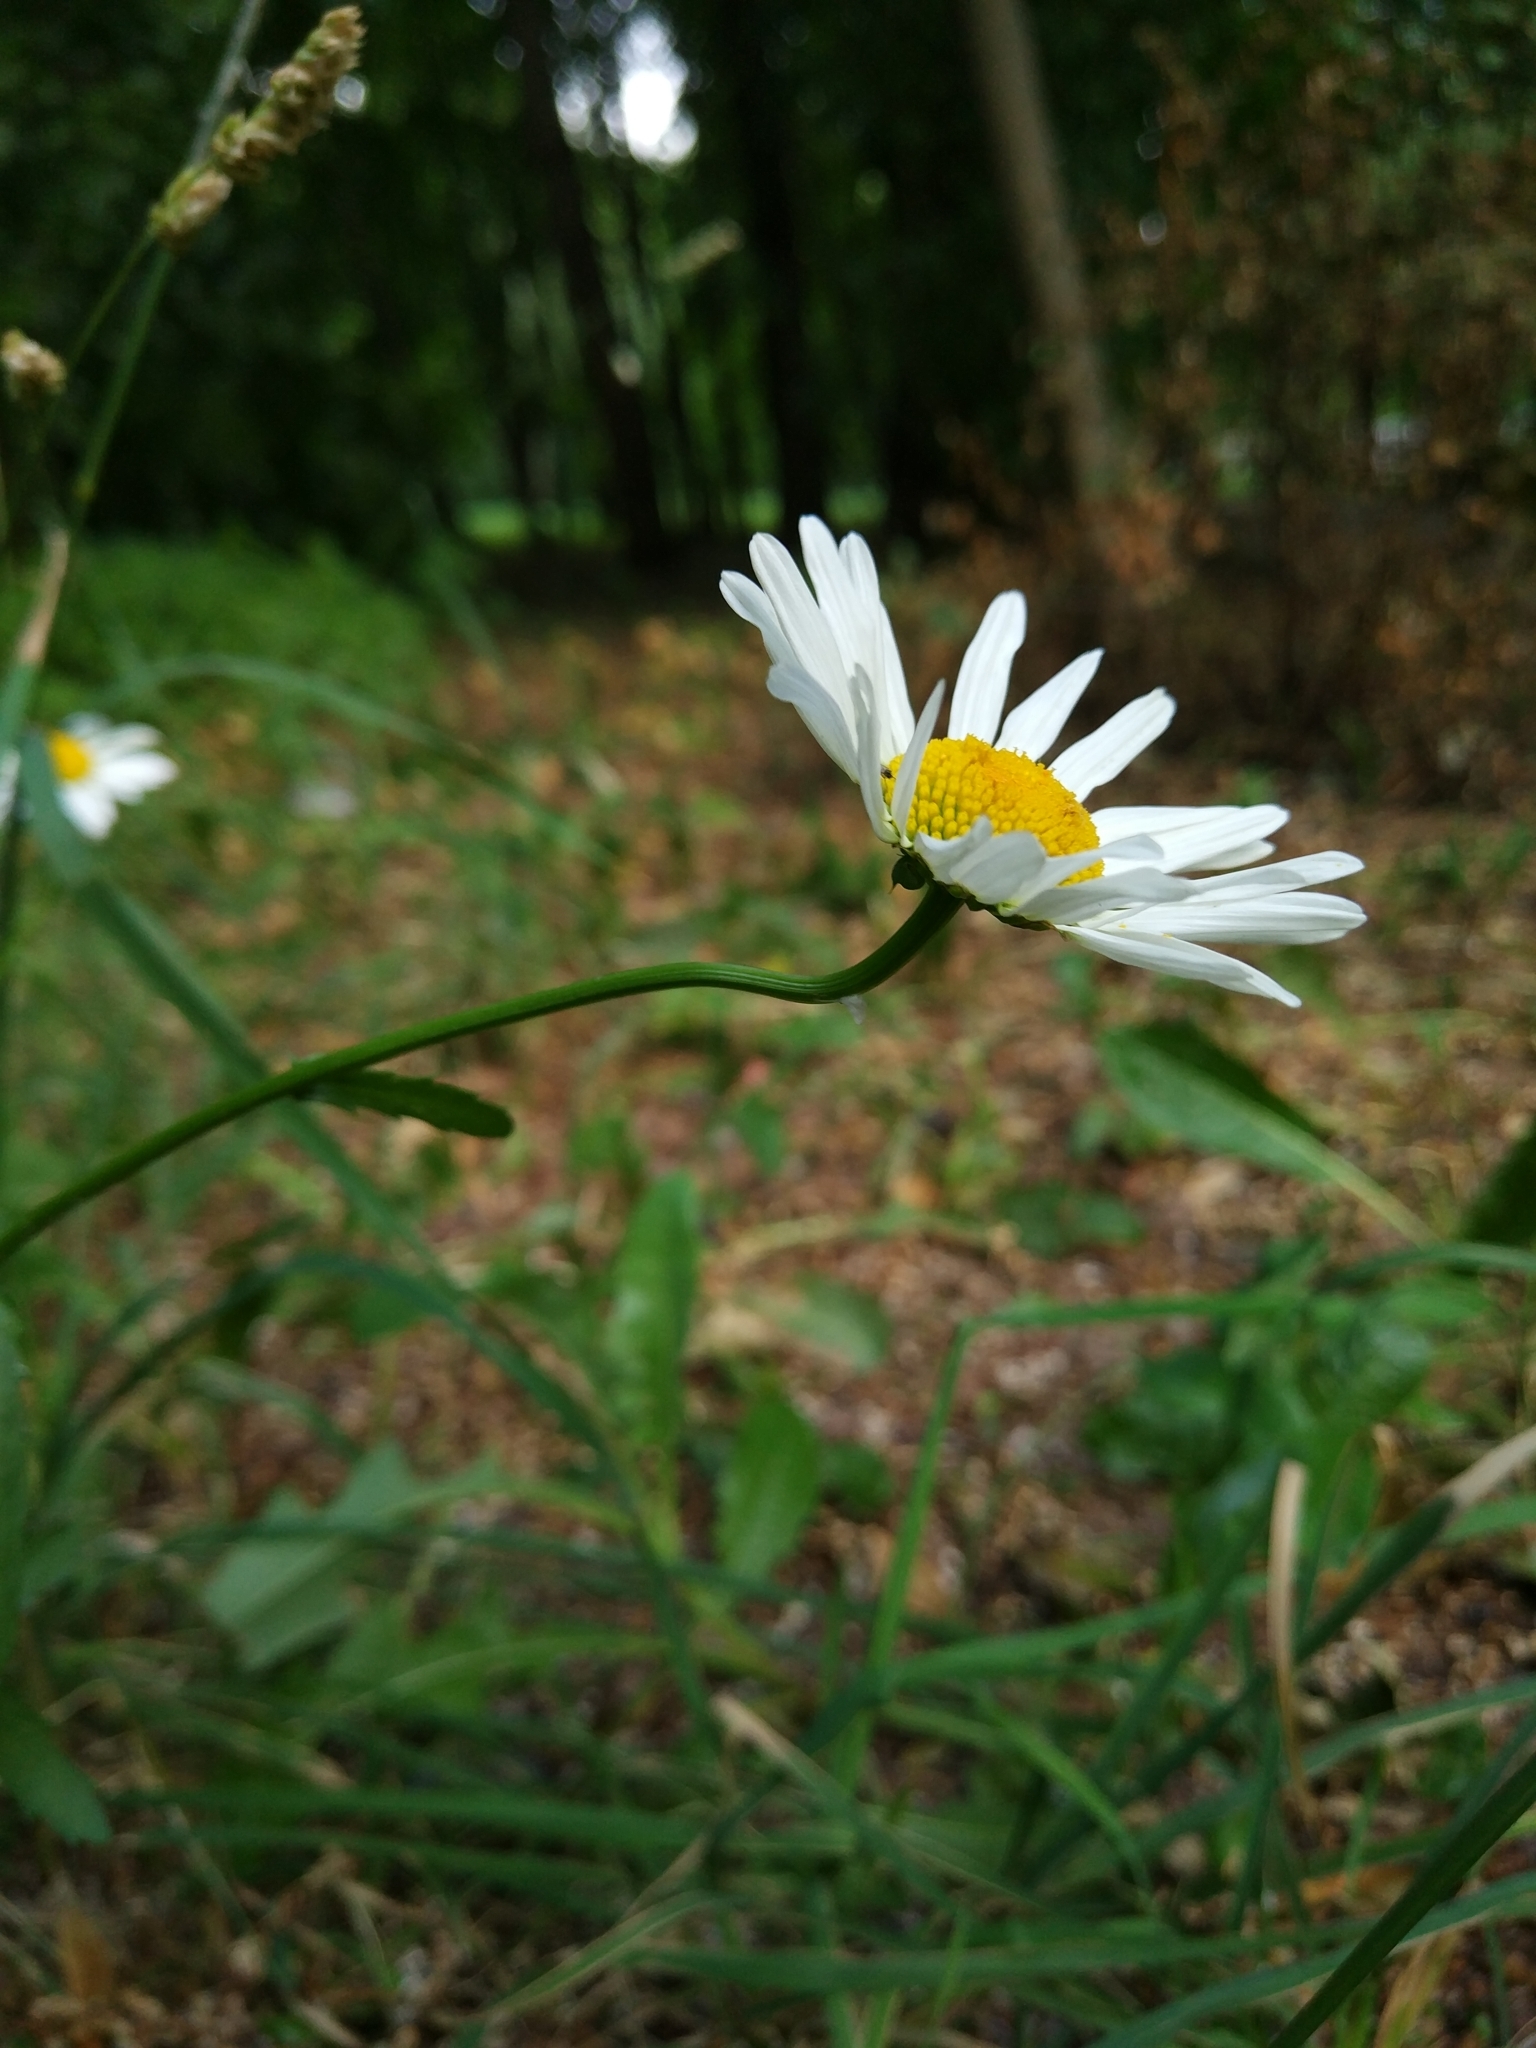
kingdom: Plantae
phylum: Tracheophyta
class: Magnoliopsida
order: Asterales
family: Asteraceae
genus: Leucanthemum
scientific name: Leucanthemum vulgare
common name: Oxeye daisy
